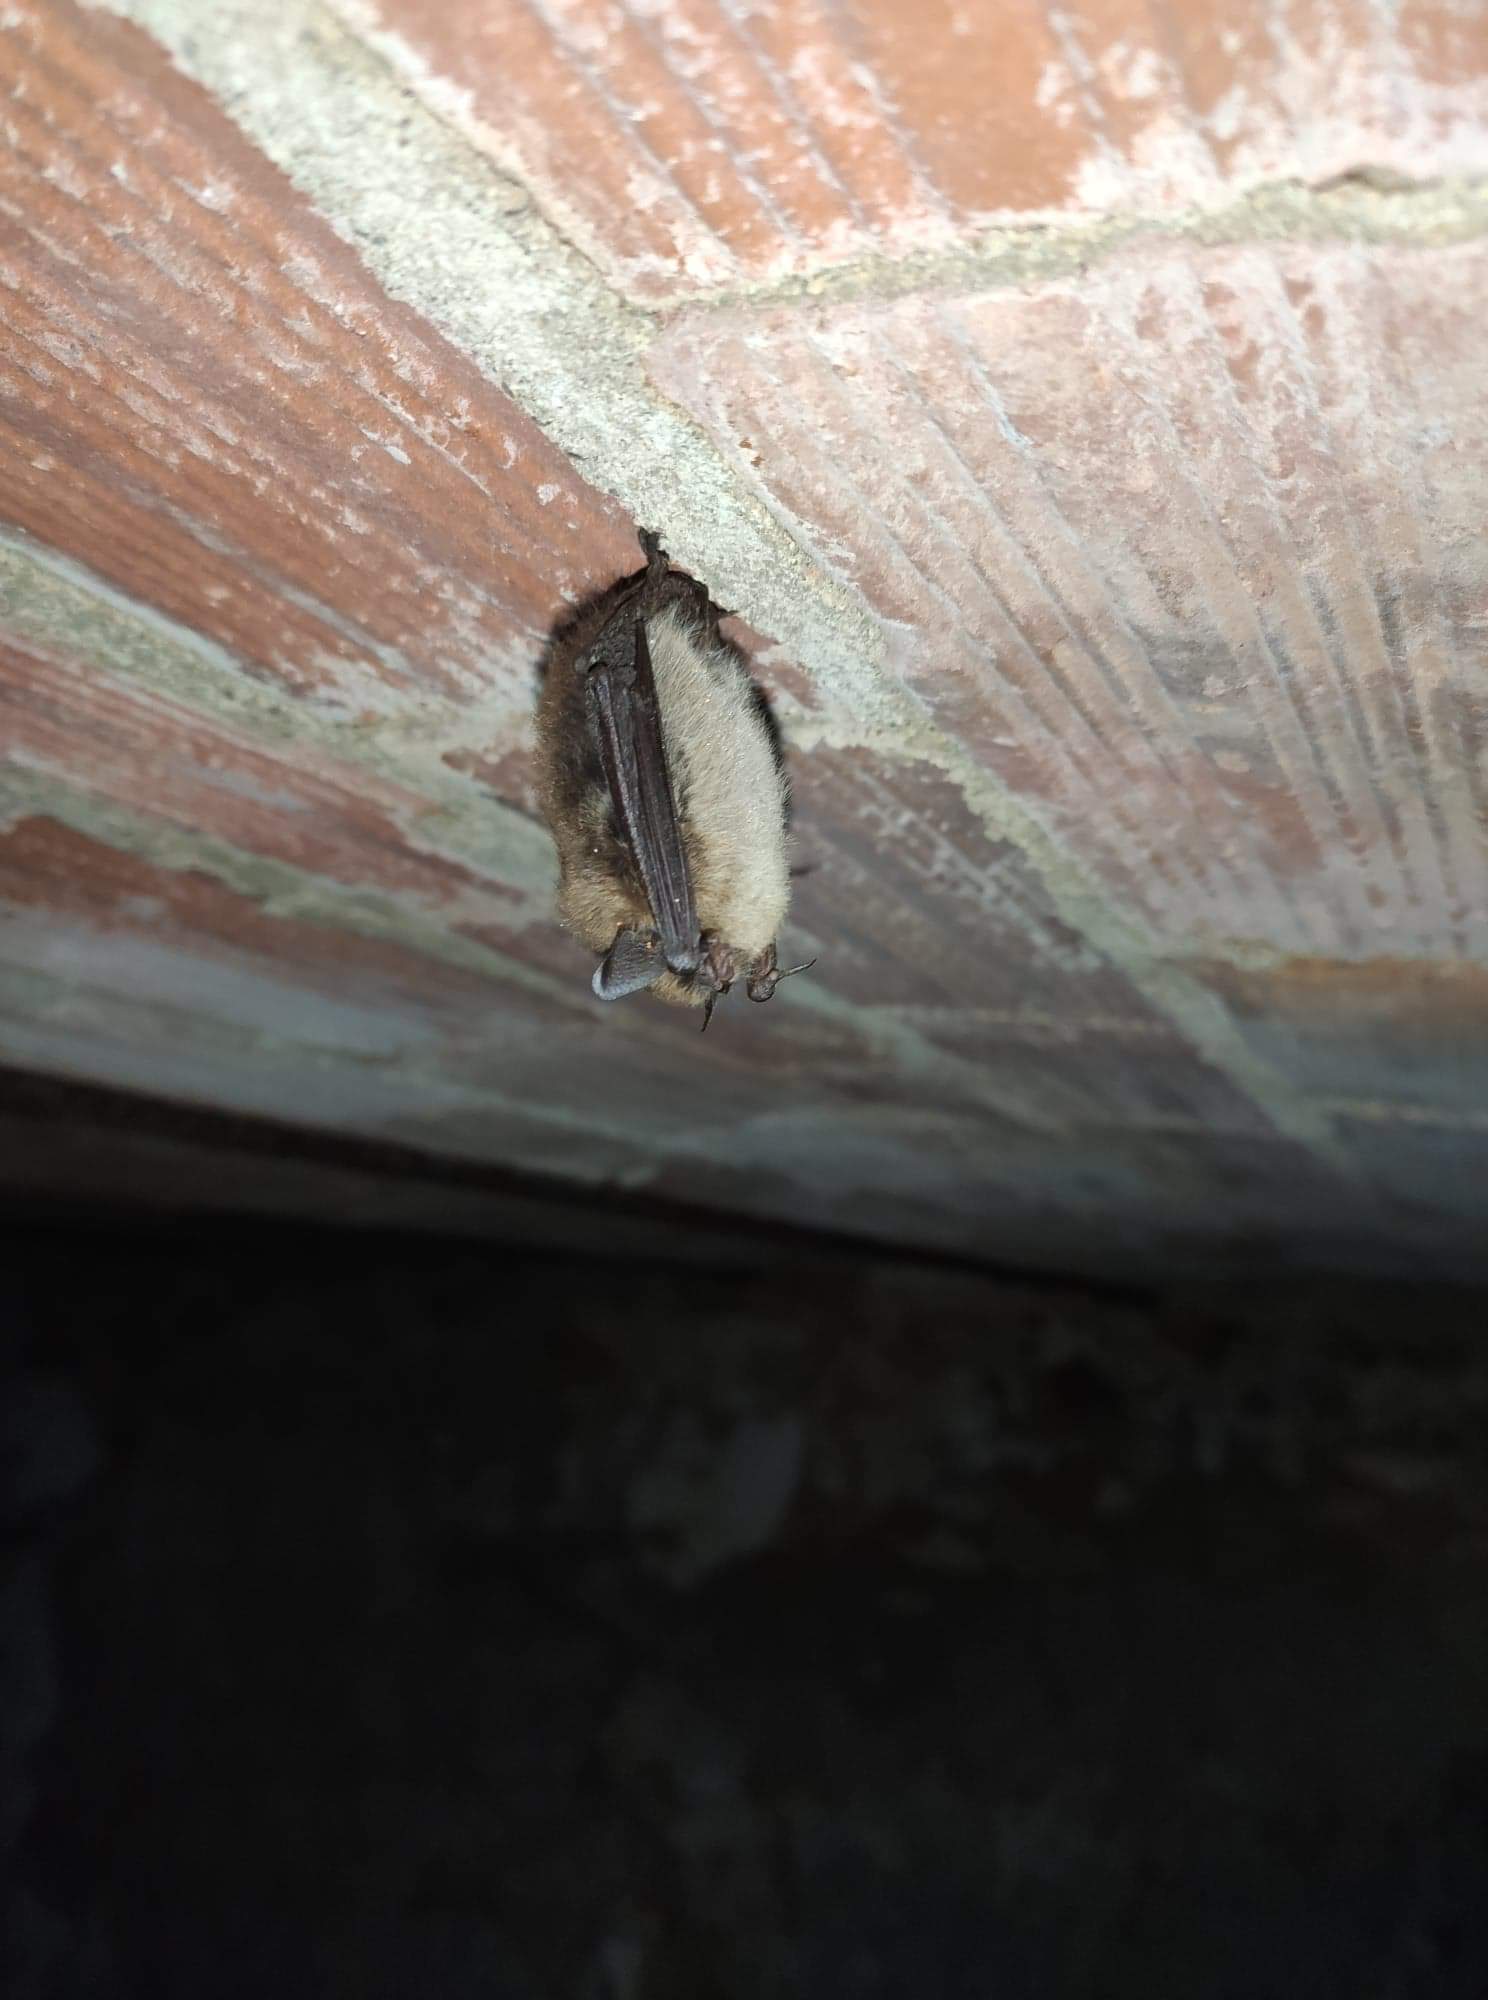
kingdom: Animalia
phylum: Chordata
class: Mammalia
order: Chiroptera
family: Vespertilionidae
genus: Myotis
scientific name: Myotis mystacinus
